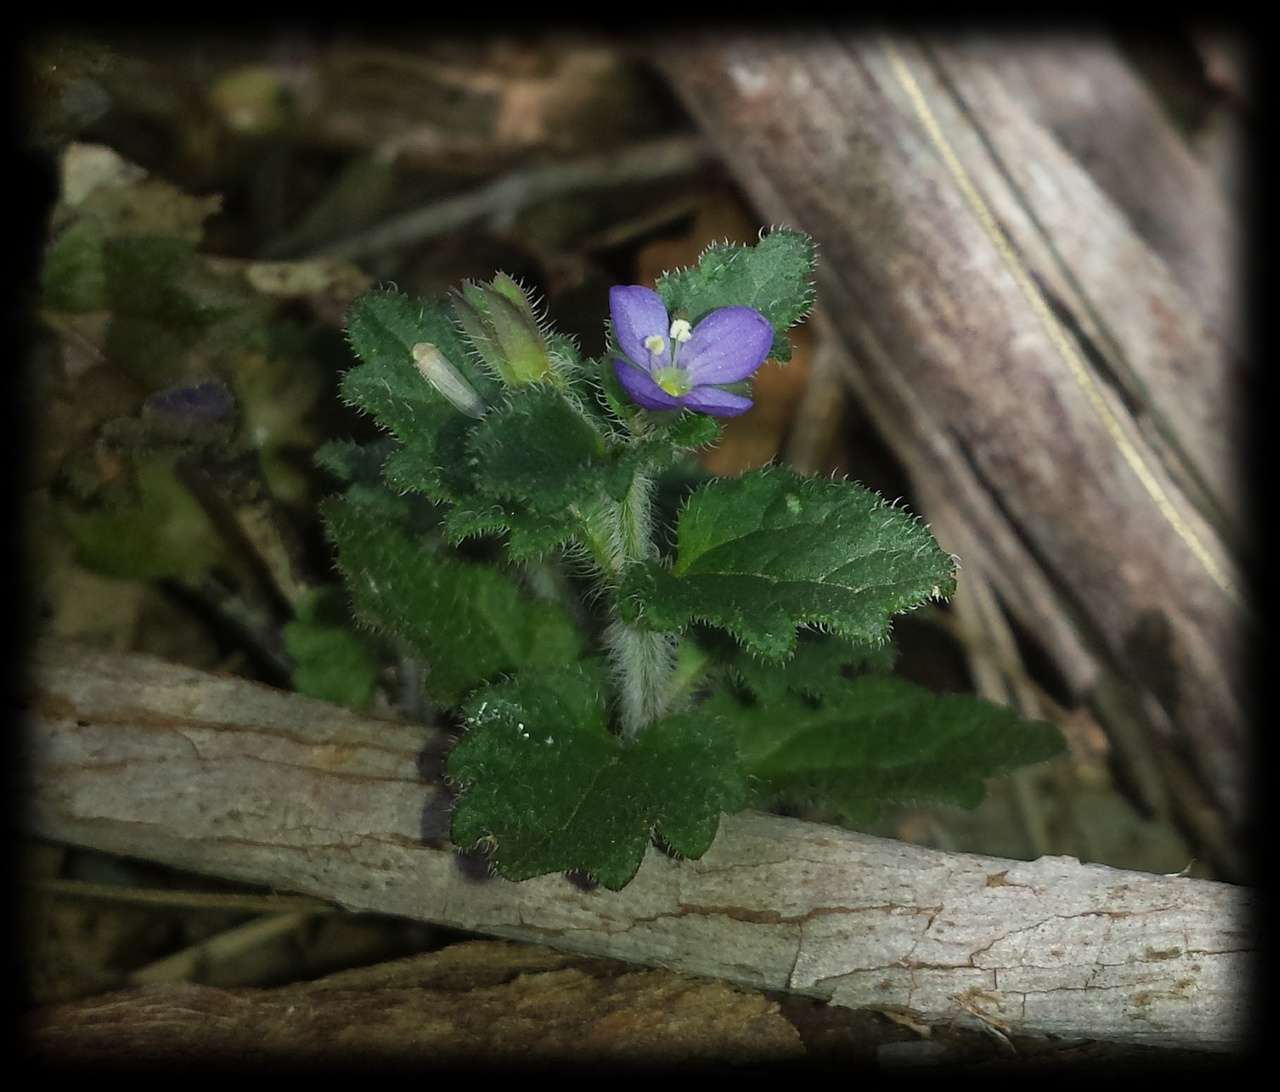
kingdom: Plantae
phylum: Tracheophyta
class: Magnoliopsida
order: Lamiales
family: Plantaginaceae
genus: Veronica
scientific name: Veronica calycina
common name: Cup speedwell
